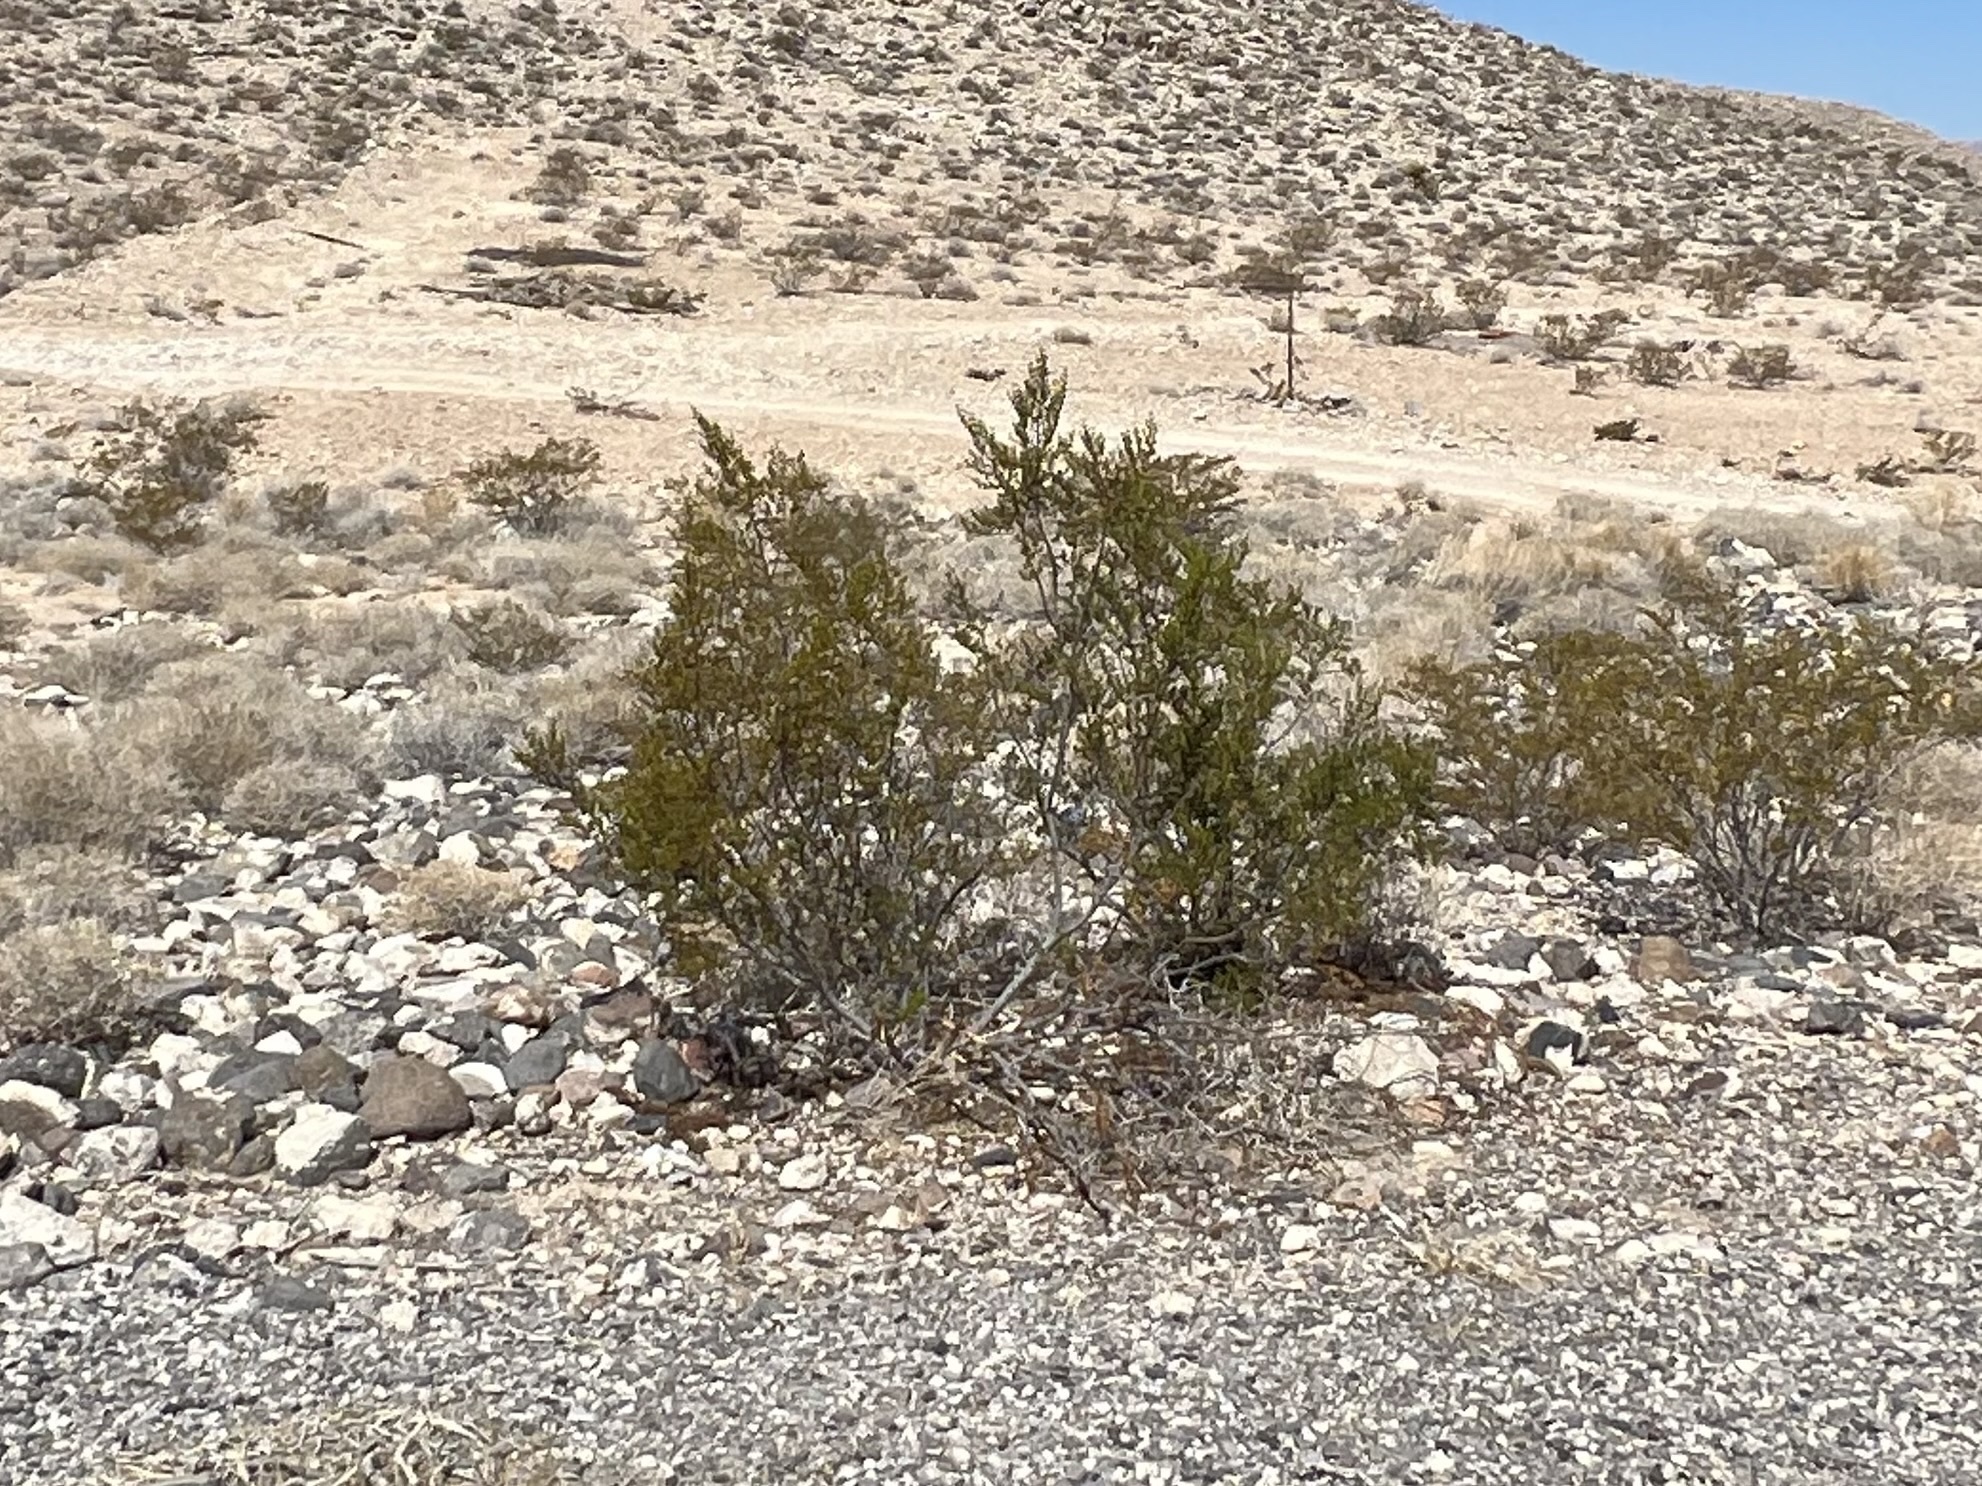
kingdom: Plantae
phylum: Tracheophyta
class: Magnoliopsida
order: Zygophyllales
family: Zygophyllaceae
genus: Larrea
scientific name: Larrea tridentata
